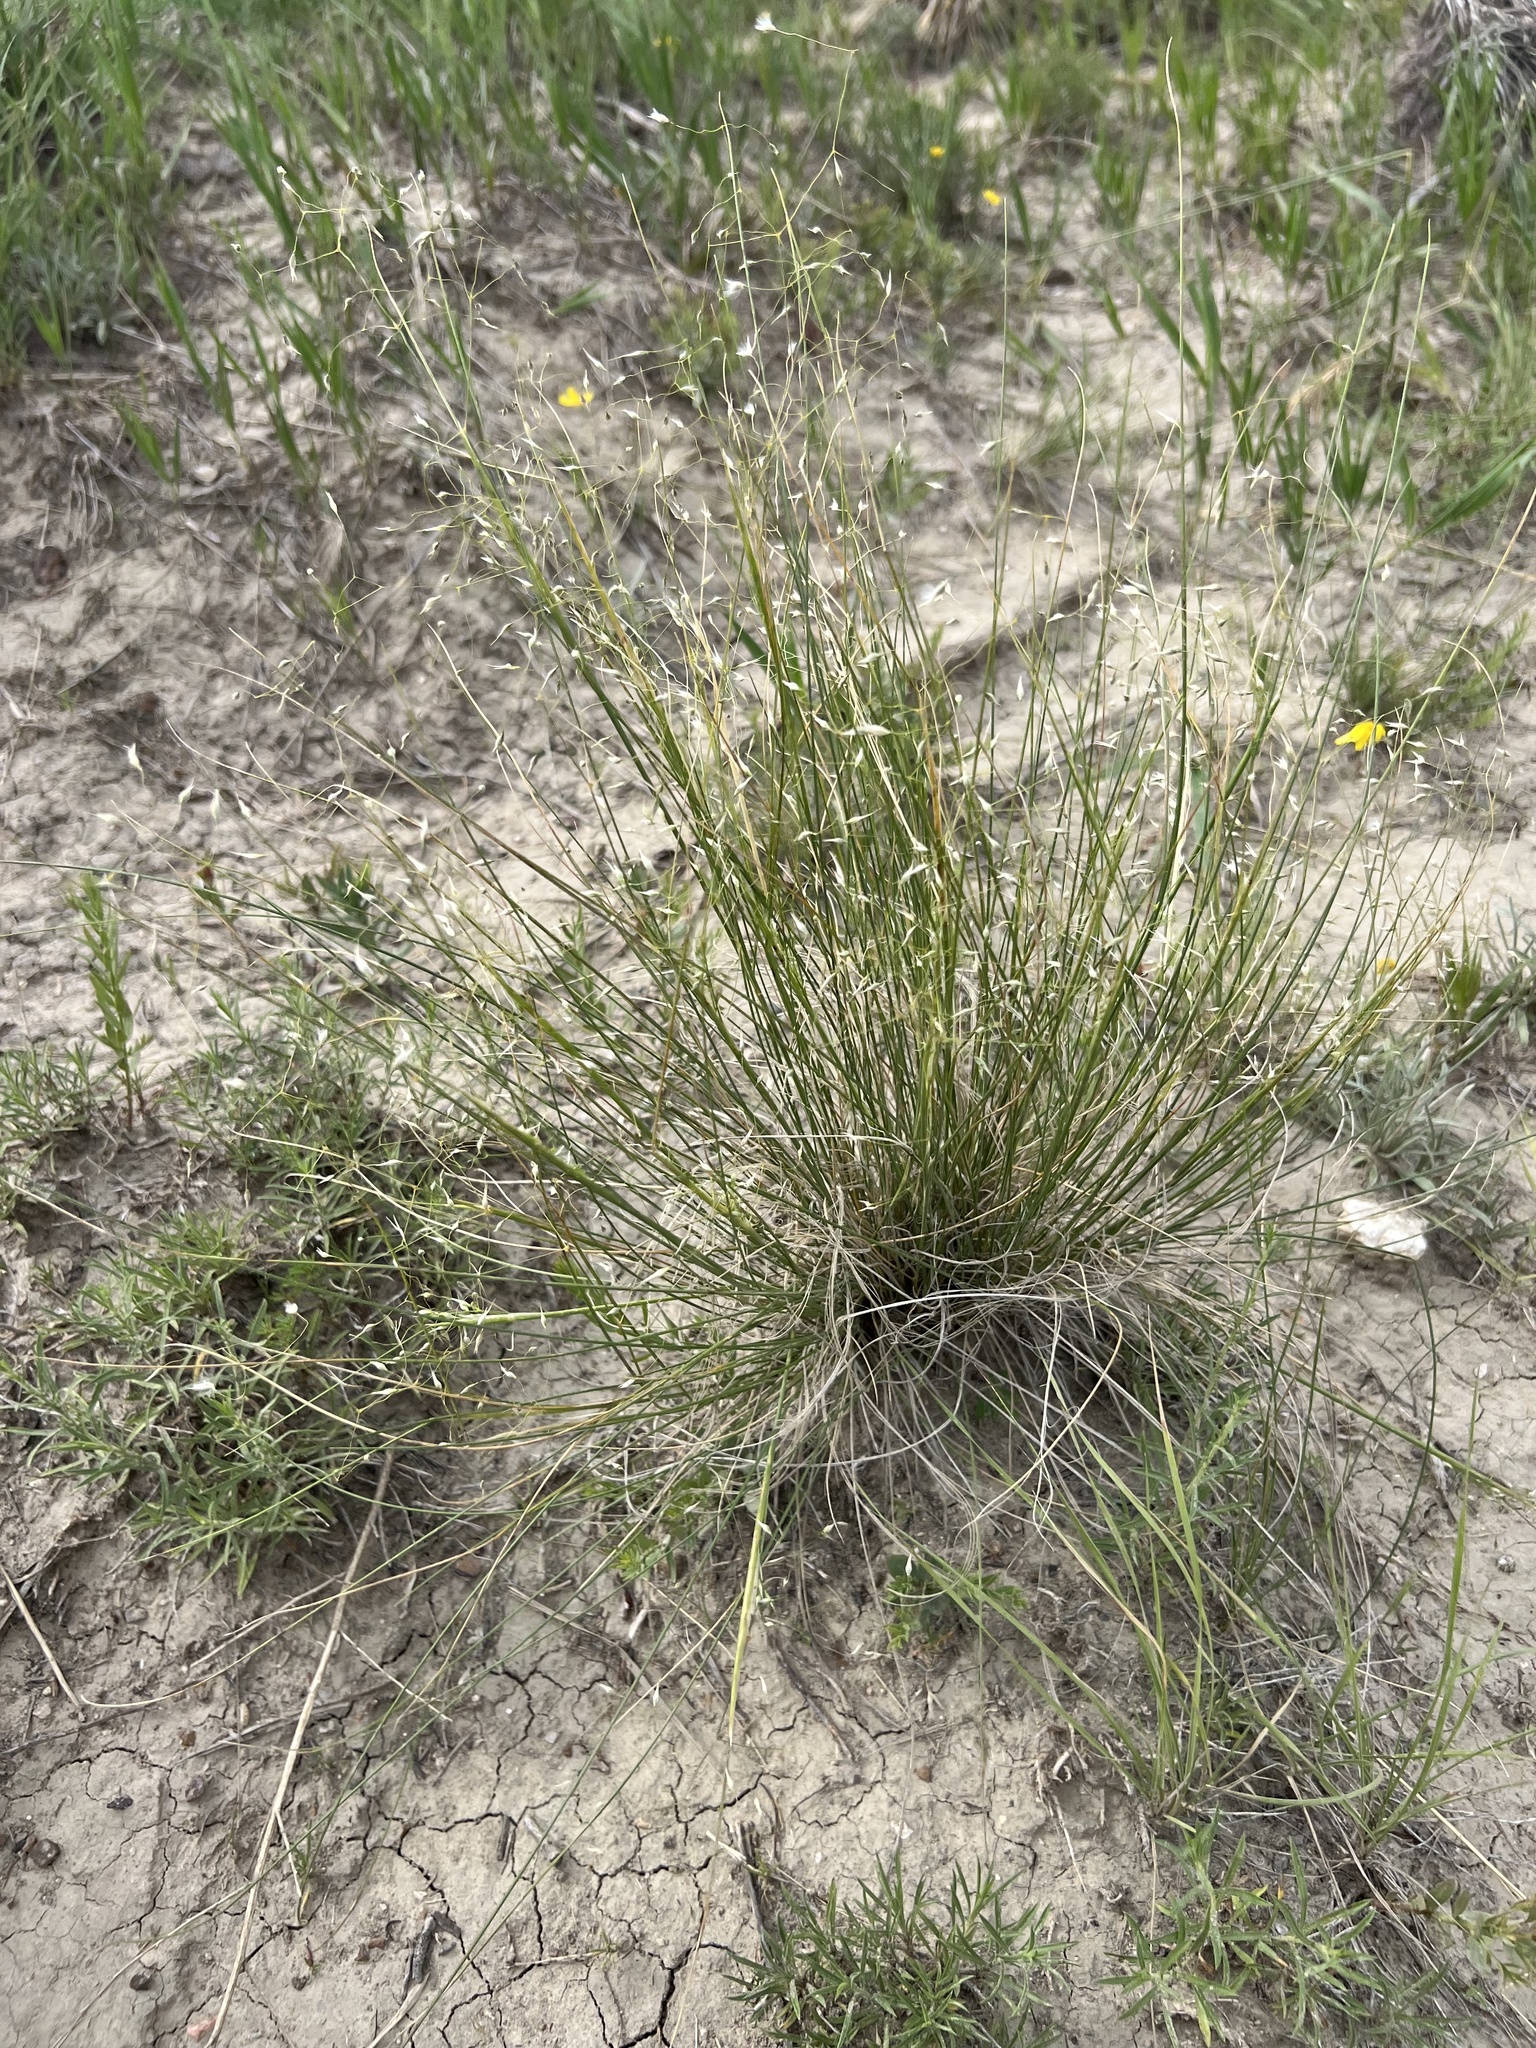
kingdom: Plantae
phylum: Tracheophyta
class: Liliopsida
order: Poales
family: Poaceae
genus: Eriocoma
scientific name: Eriocoma hymenoides
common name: Indian mountain ricegrass
